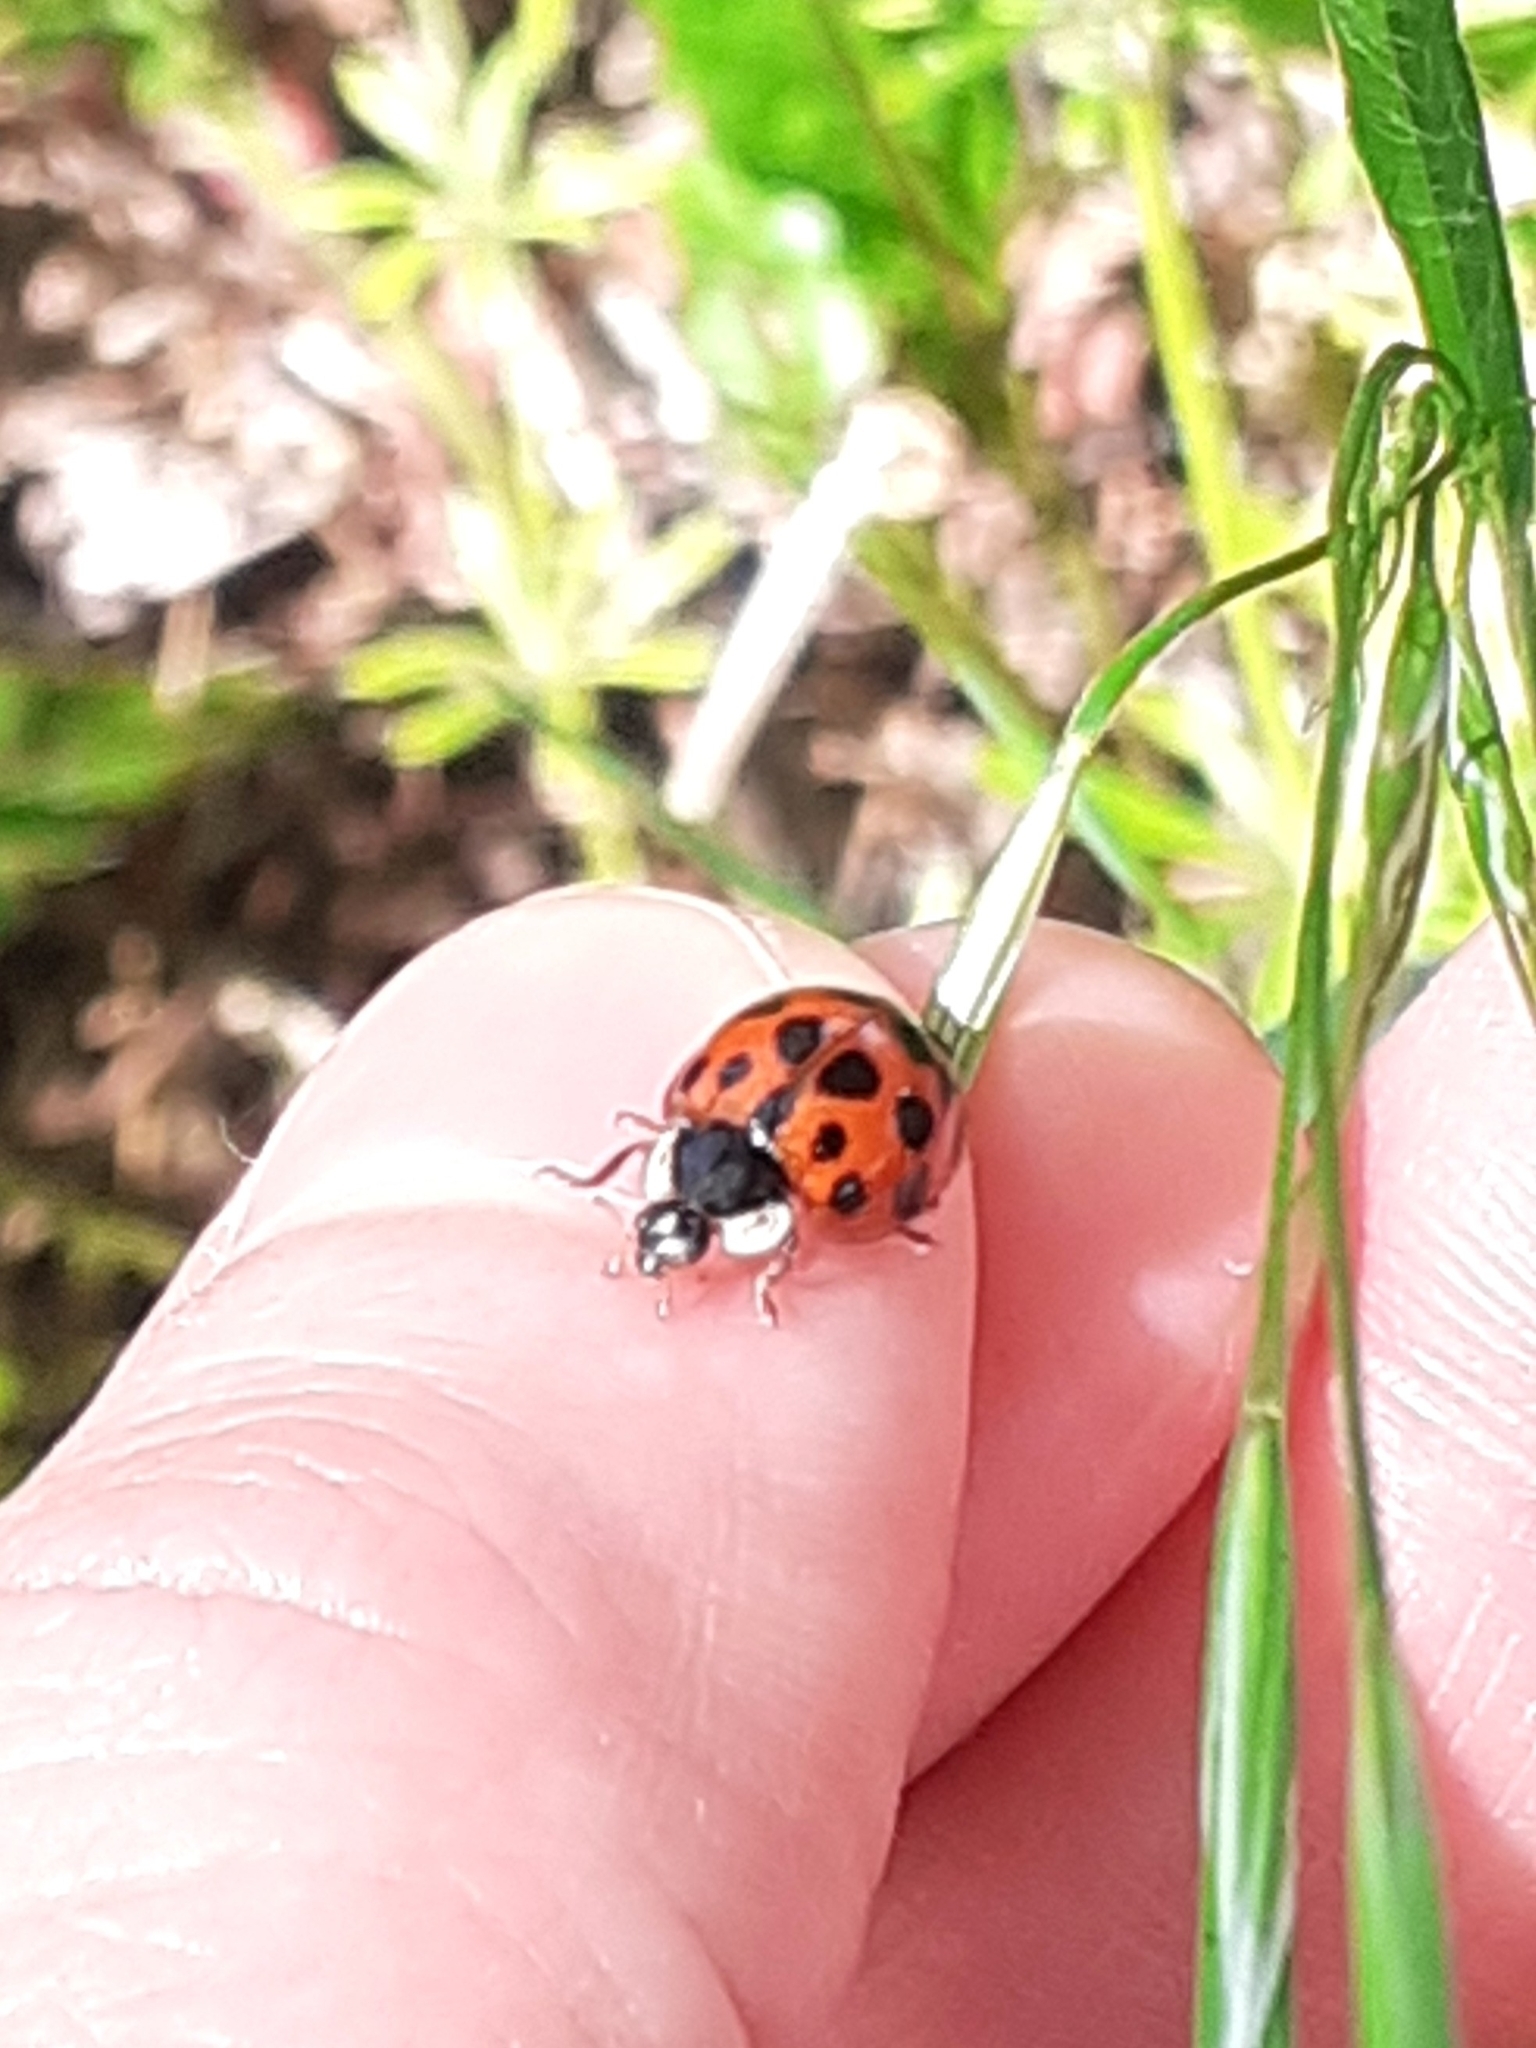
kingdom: Animalia
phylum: Arthropoda
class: Insecta
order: Coleoptera
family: Coccinellidae
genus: Harmonia
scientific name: Harmonia axyridis
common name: Harlequin ladybird
